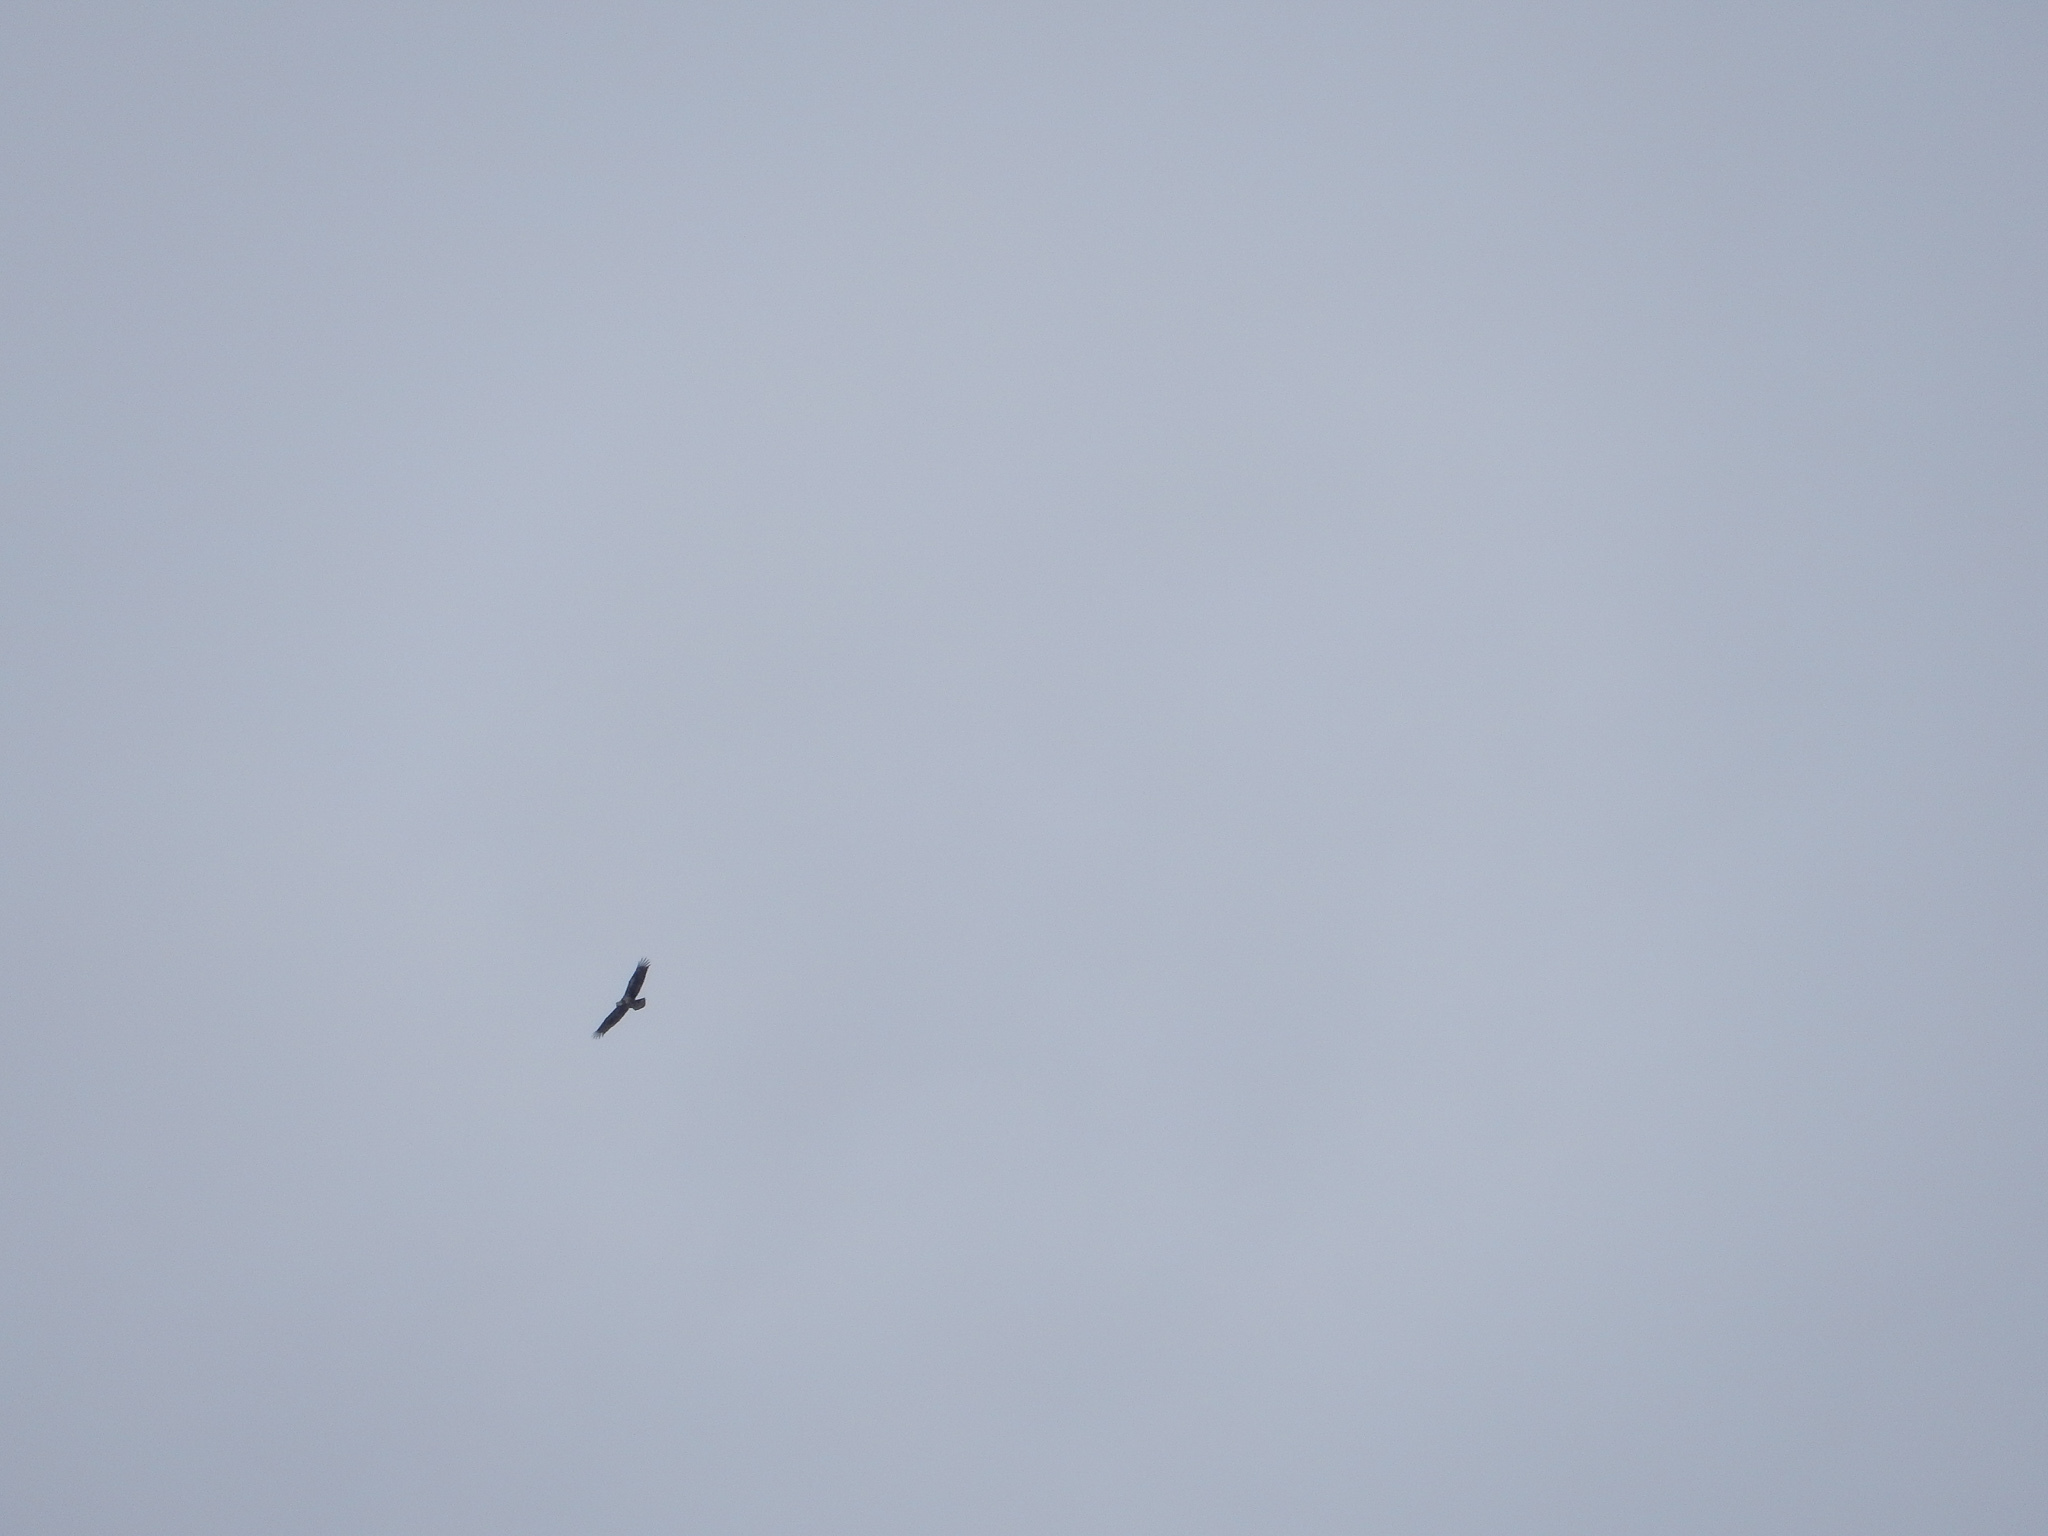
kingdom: Animalia
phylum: Chordata
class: Aves
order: Accipitriformes
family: Accipitridae
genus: Haliaeetus
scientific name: Haliaeetus leucocephalus
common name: Bald eagle
